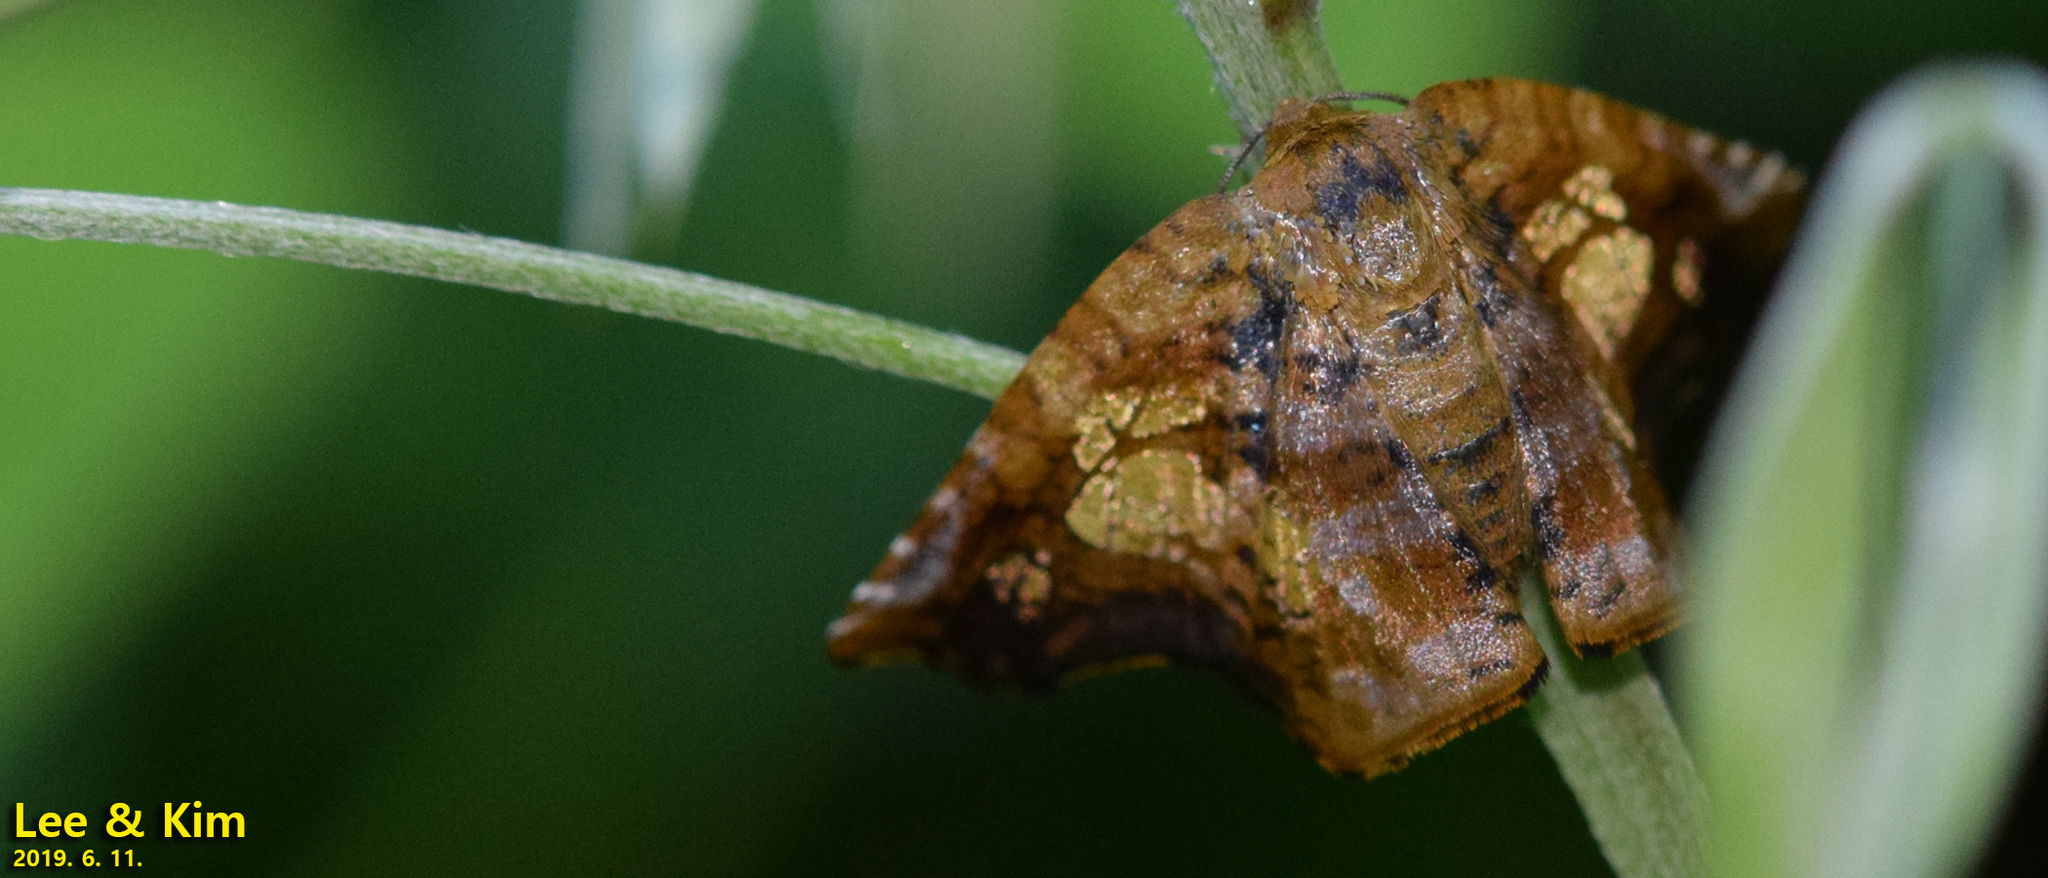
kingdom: Animalia
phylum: Arthropoda
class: Insecta
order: Lepidoptera
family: Thyrididae
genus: Sericophara
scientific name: Sericophara guttata
